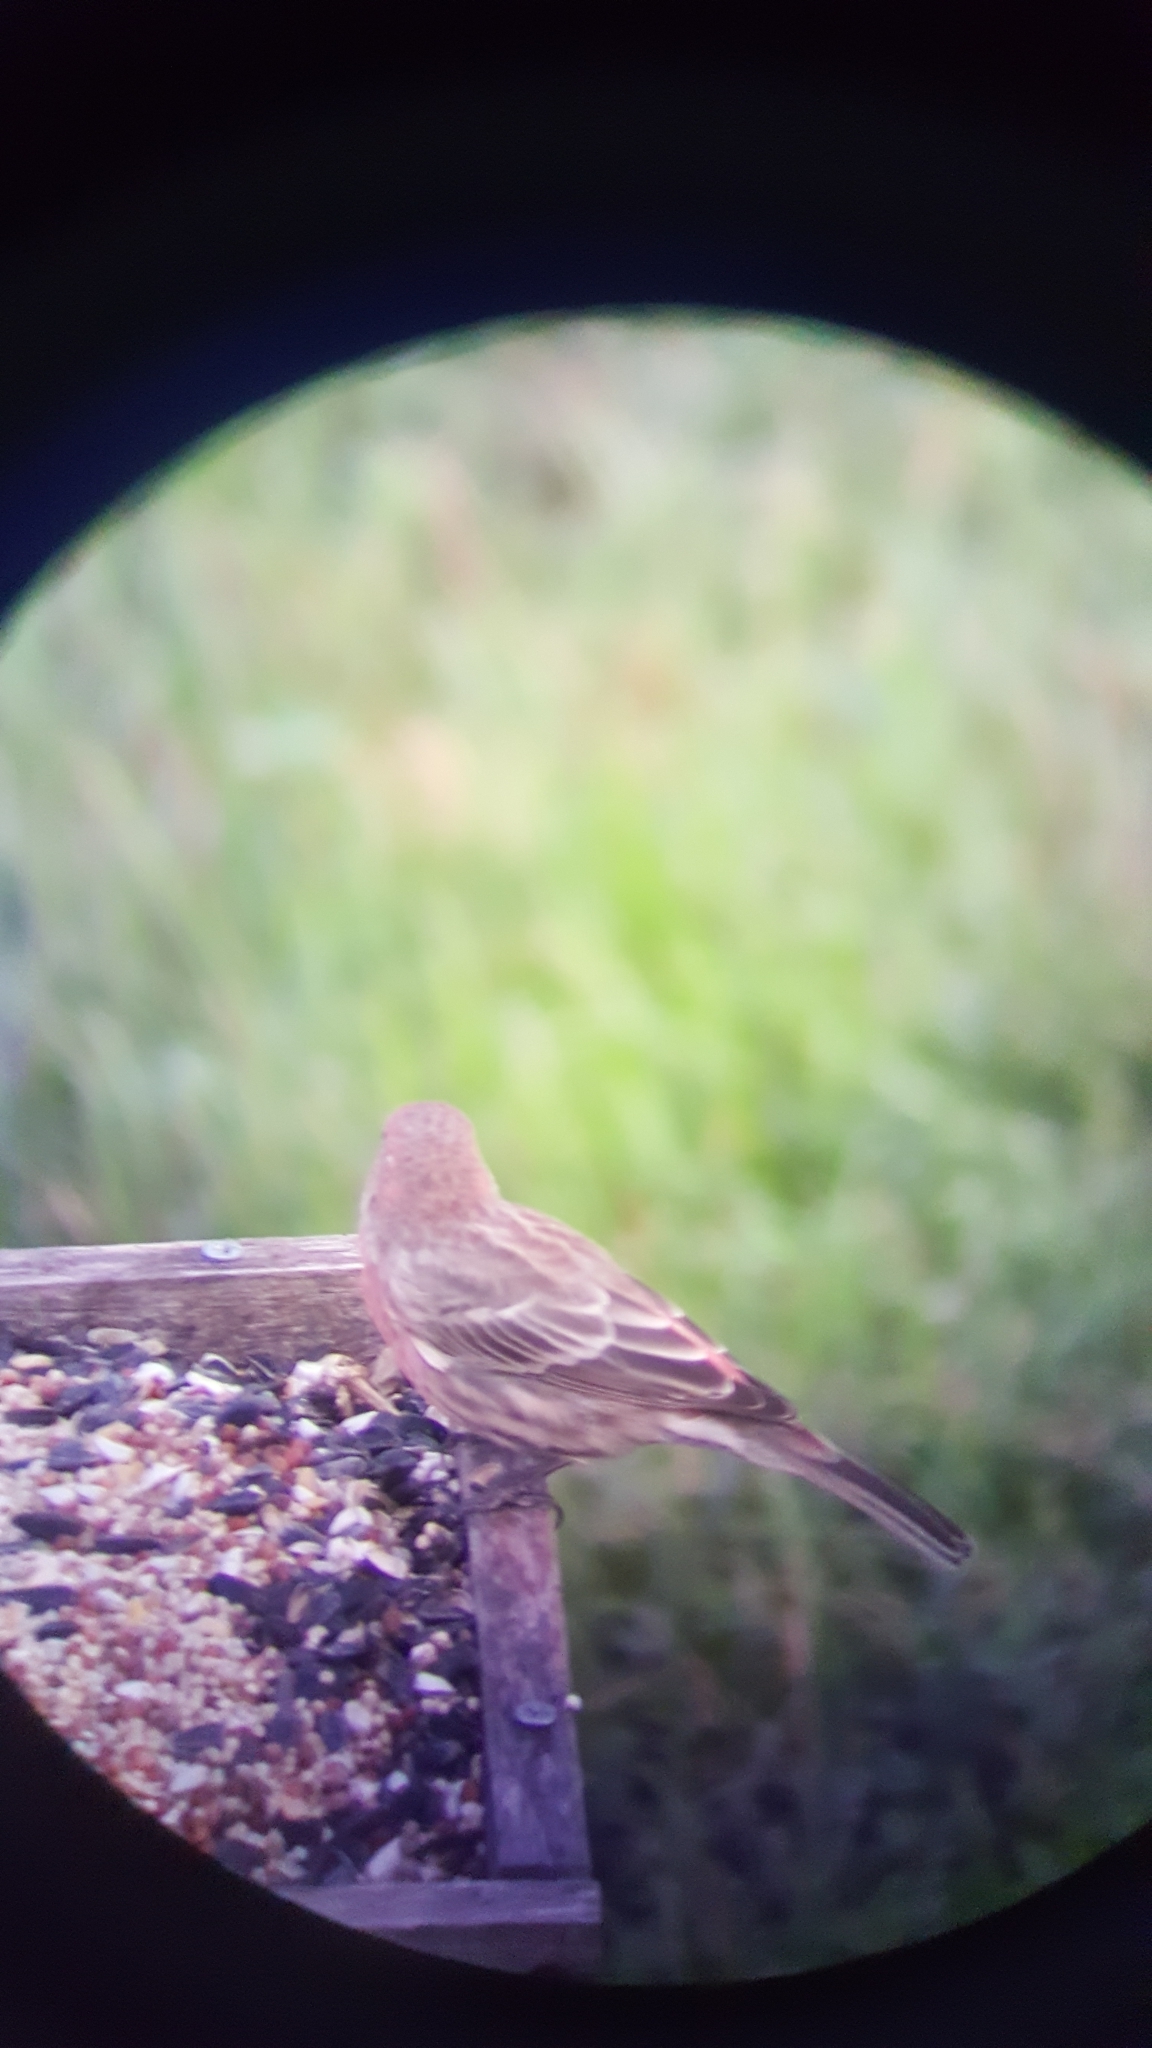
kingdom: Animalia
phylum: Chordata
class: Aves
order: Passeriformes
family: Fringillidae
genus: Haemorhous
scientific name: Haemorhous mexicanus
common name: House finch
